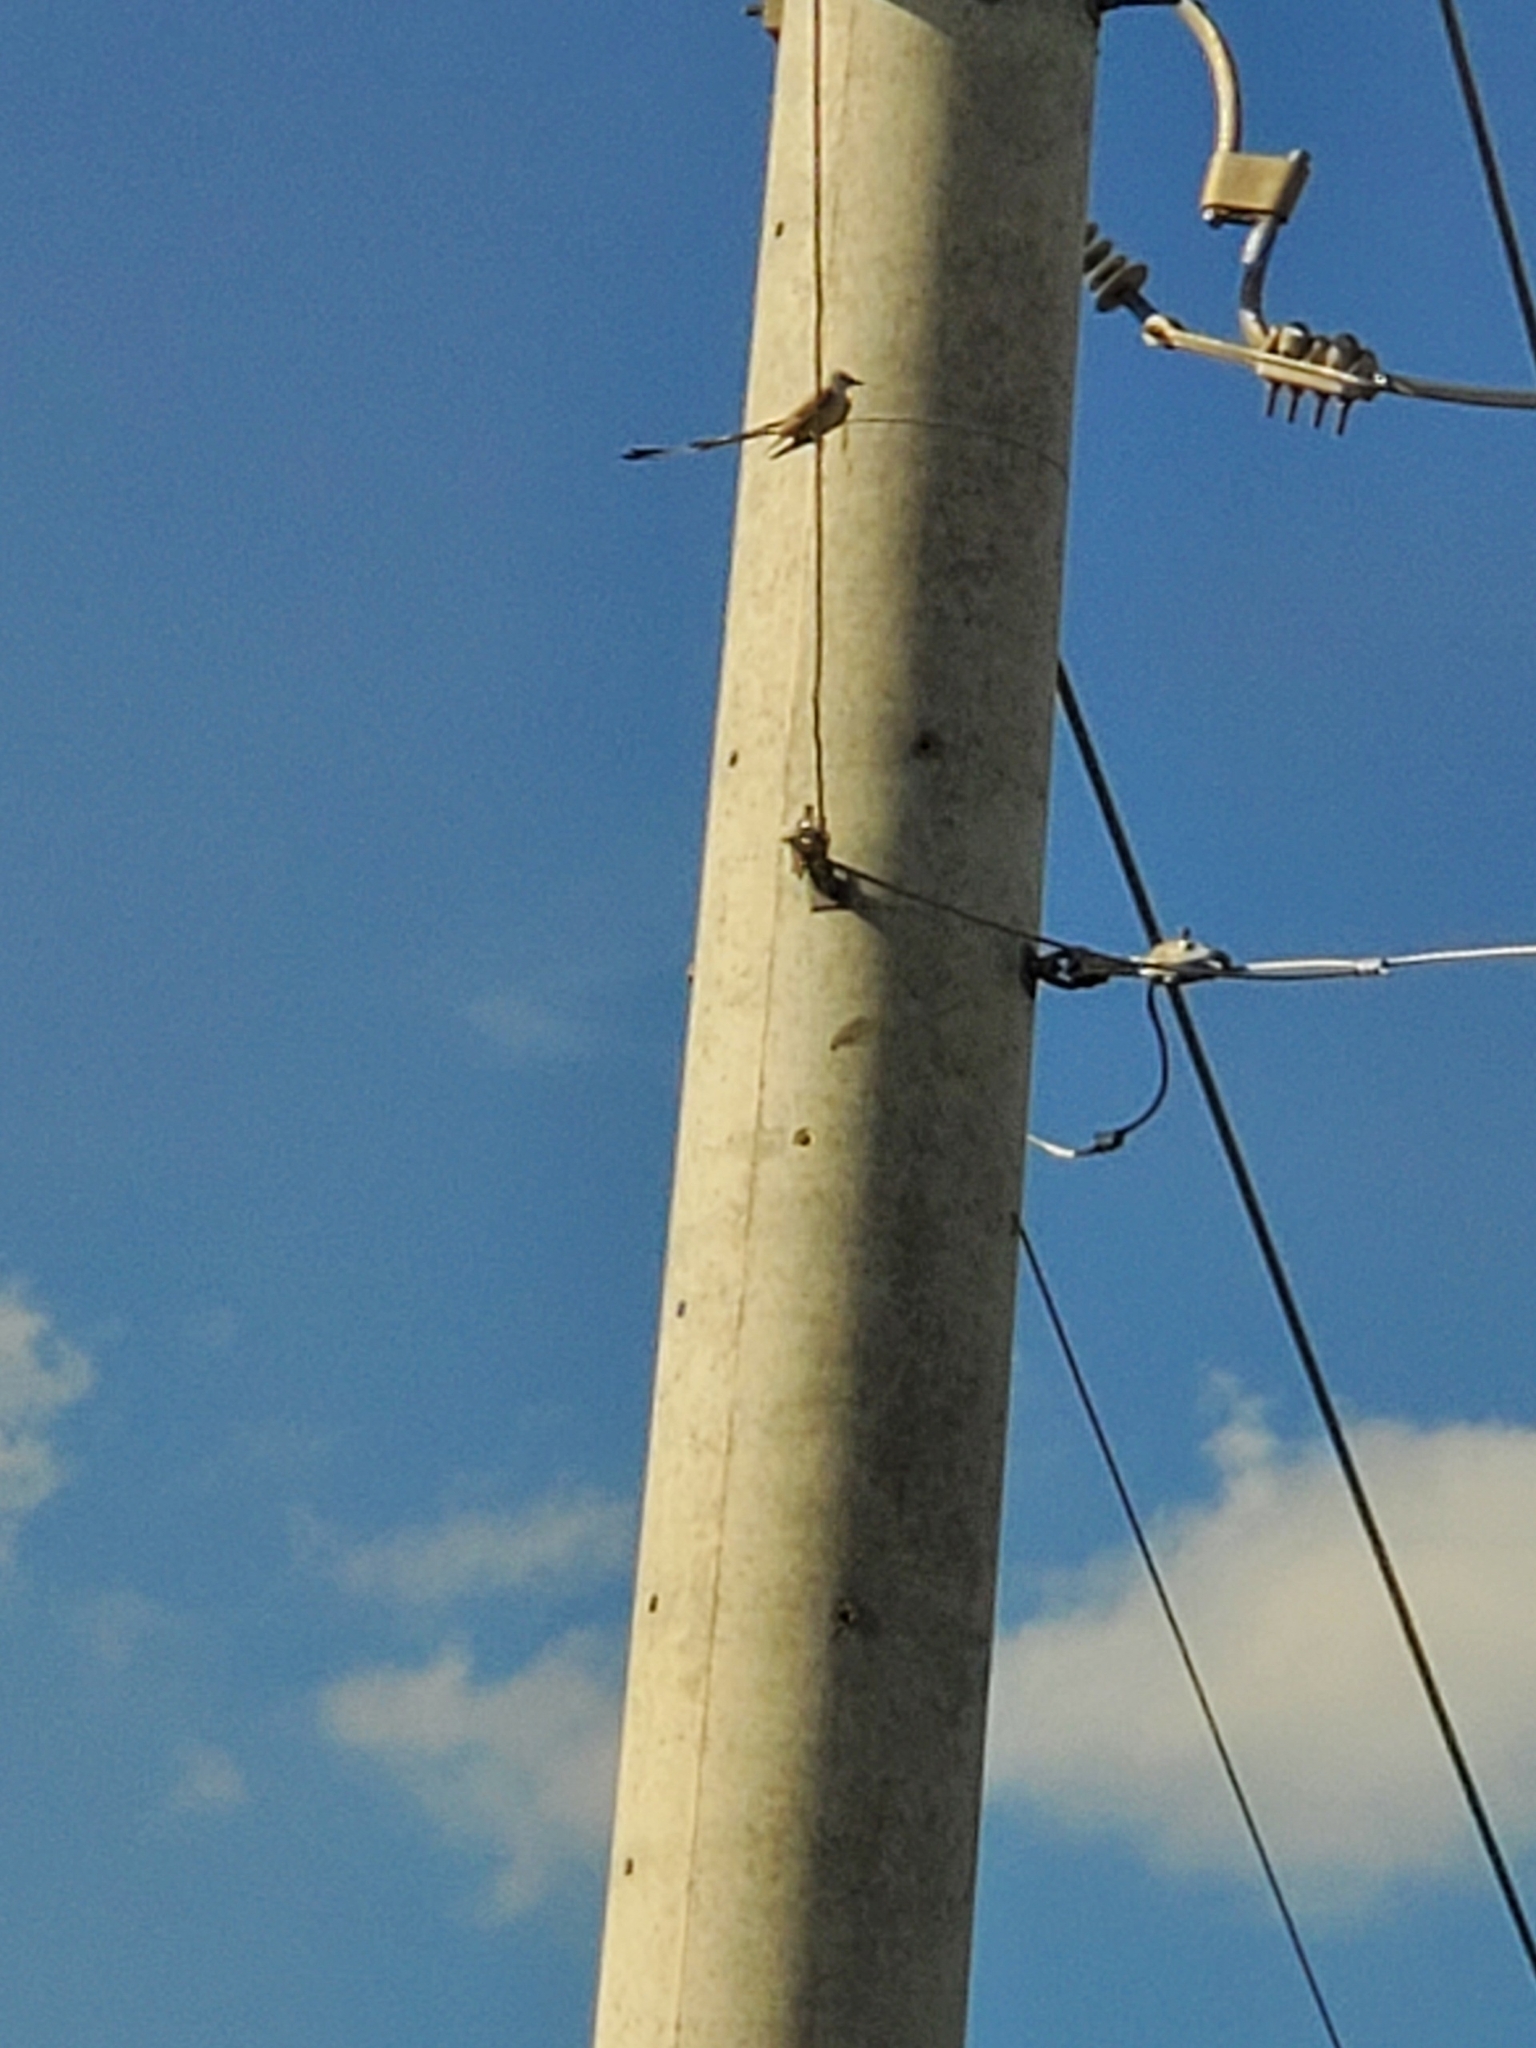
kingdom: Animalia
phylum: Chordata
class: Aves
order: Passeriformes
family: Tyrannidae
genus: Tyrannus
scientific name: Tyrannus forficatus
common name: Scissor-tailed flycatcher
